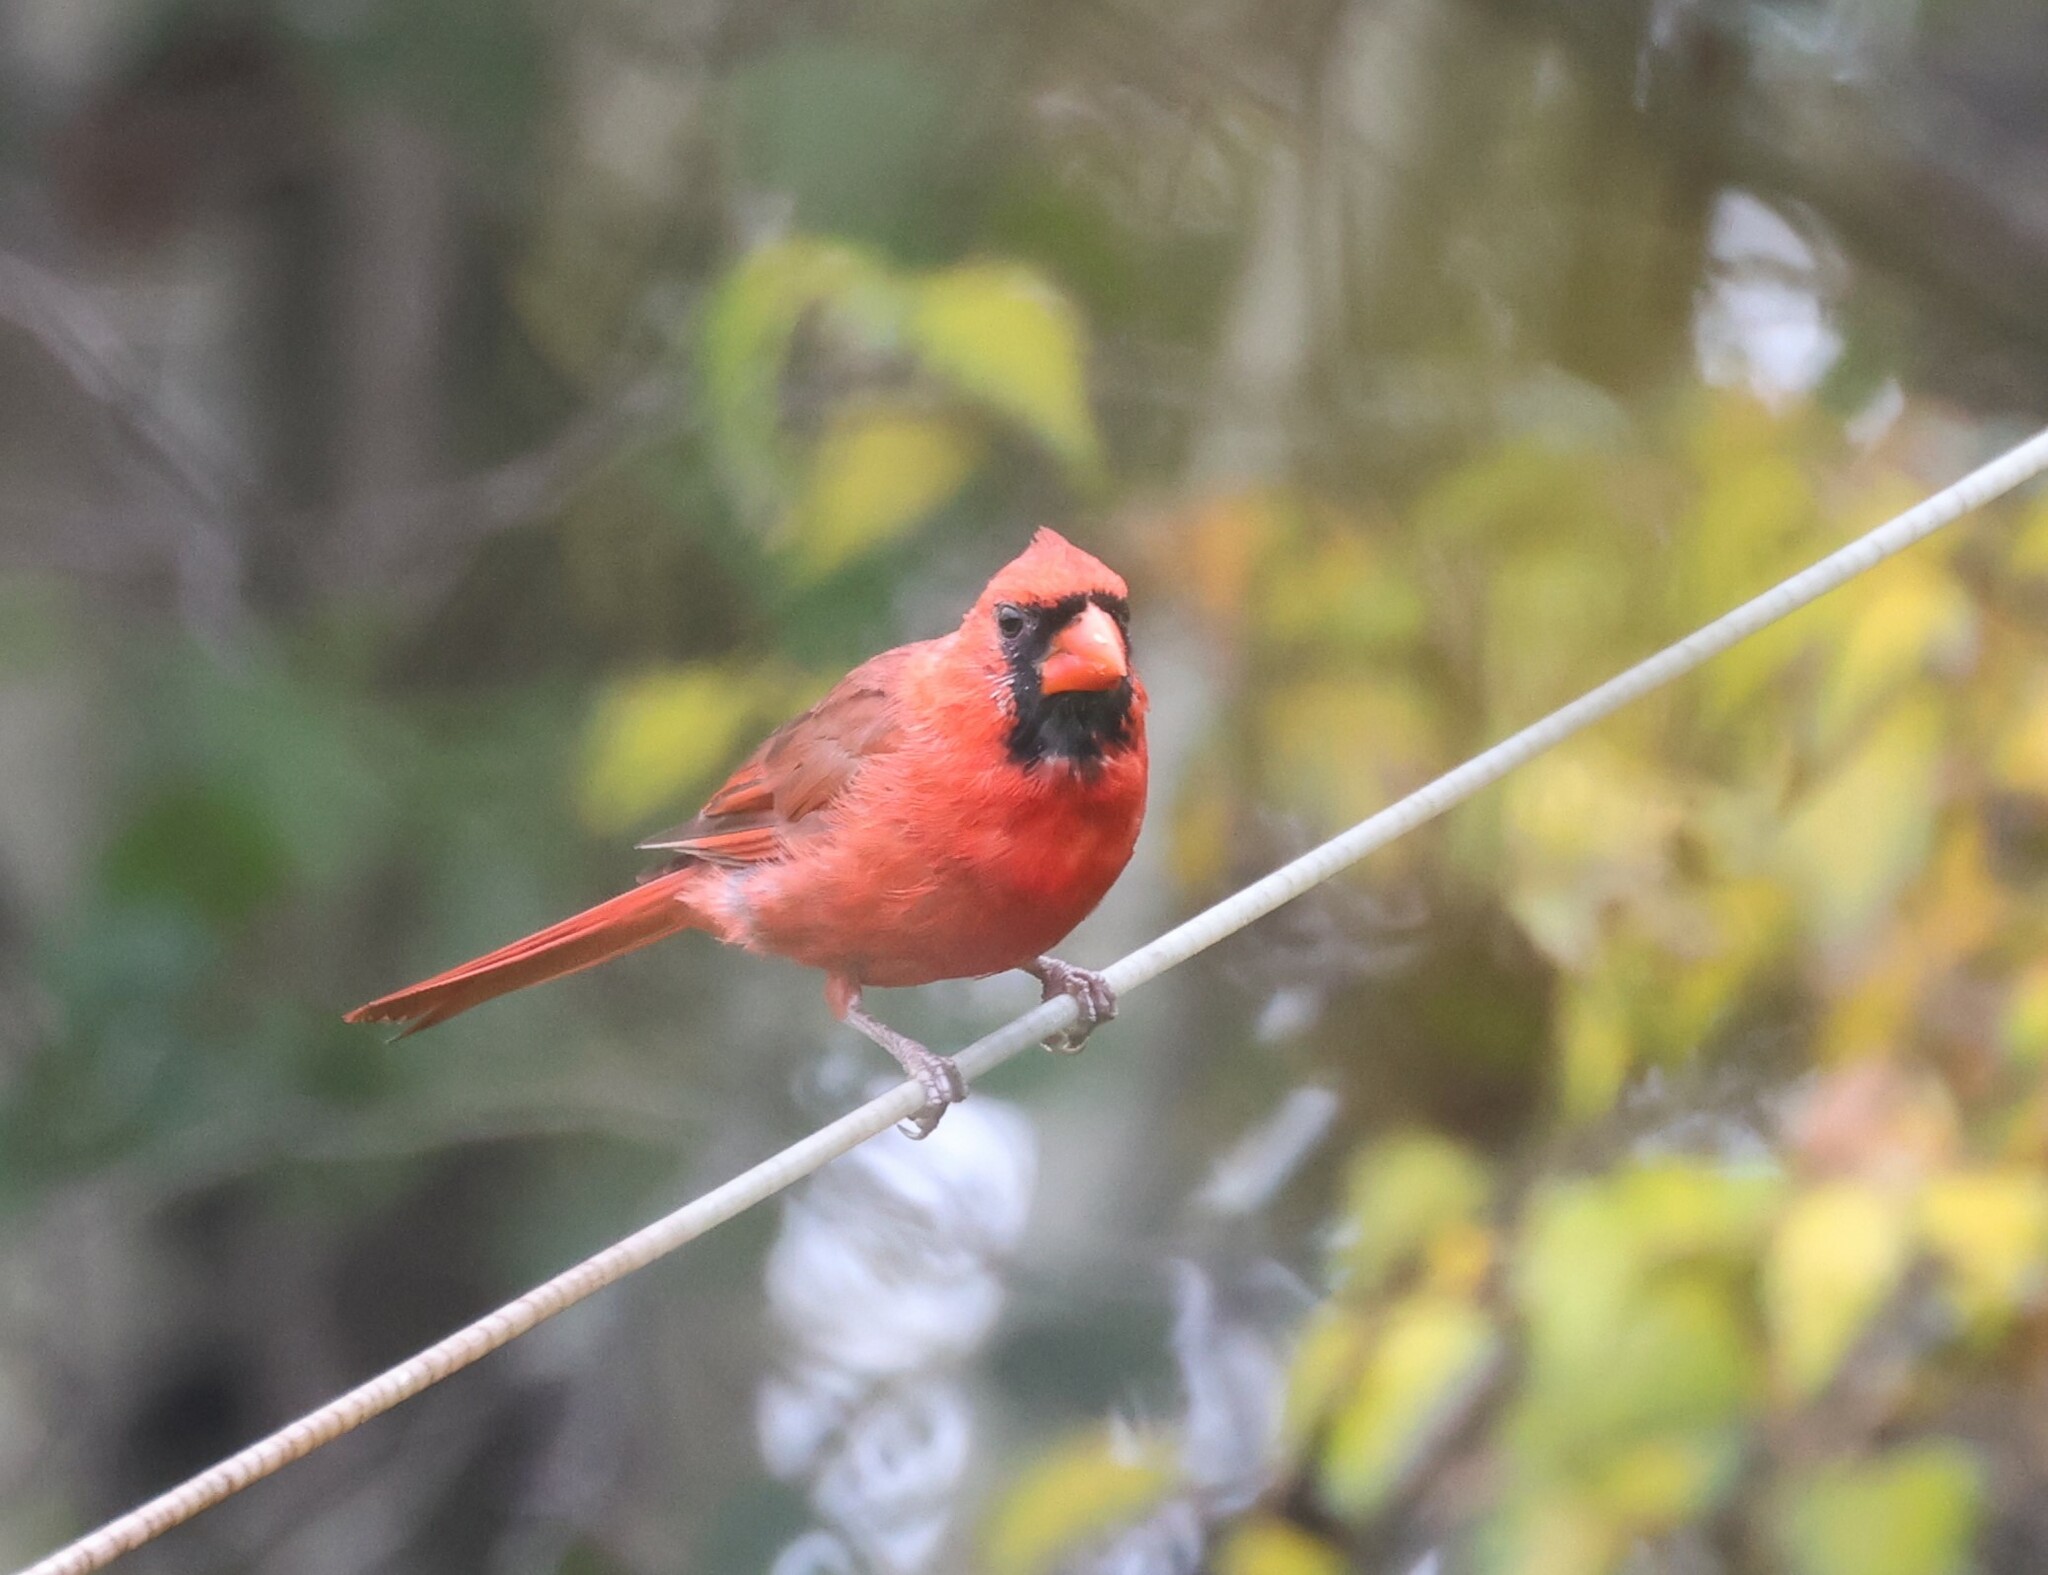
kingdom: Animalia
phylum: Chordata
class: Aves
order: Passeriformes
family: Cardinalidae
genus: Cardinalis
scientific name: Cardinalis cardinalis
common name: Northern cardinal
